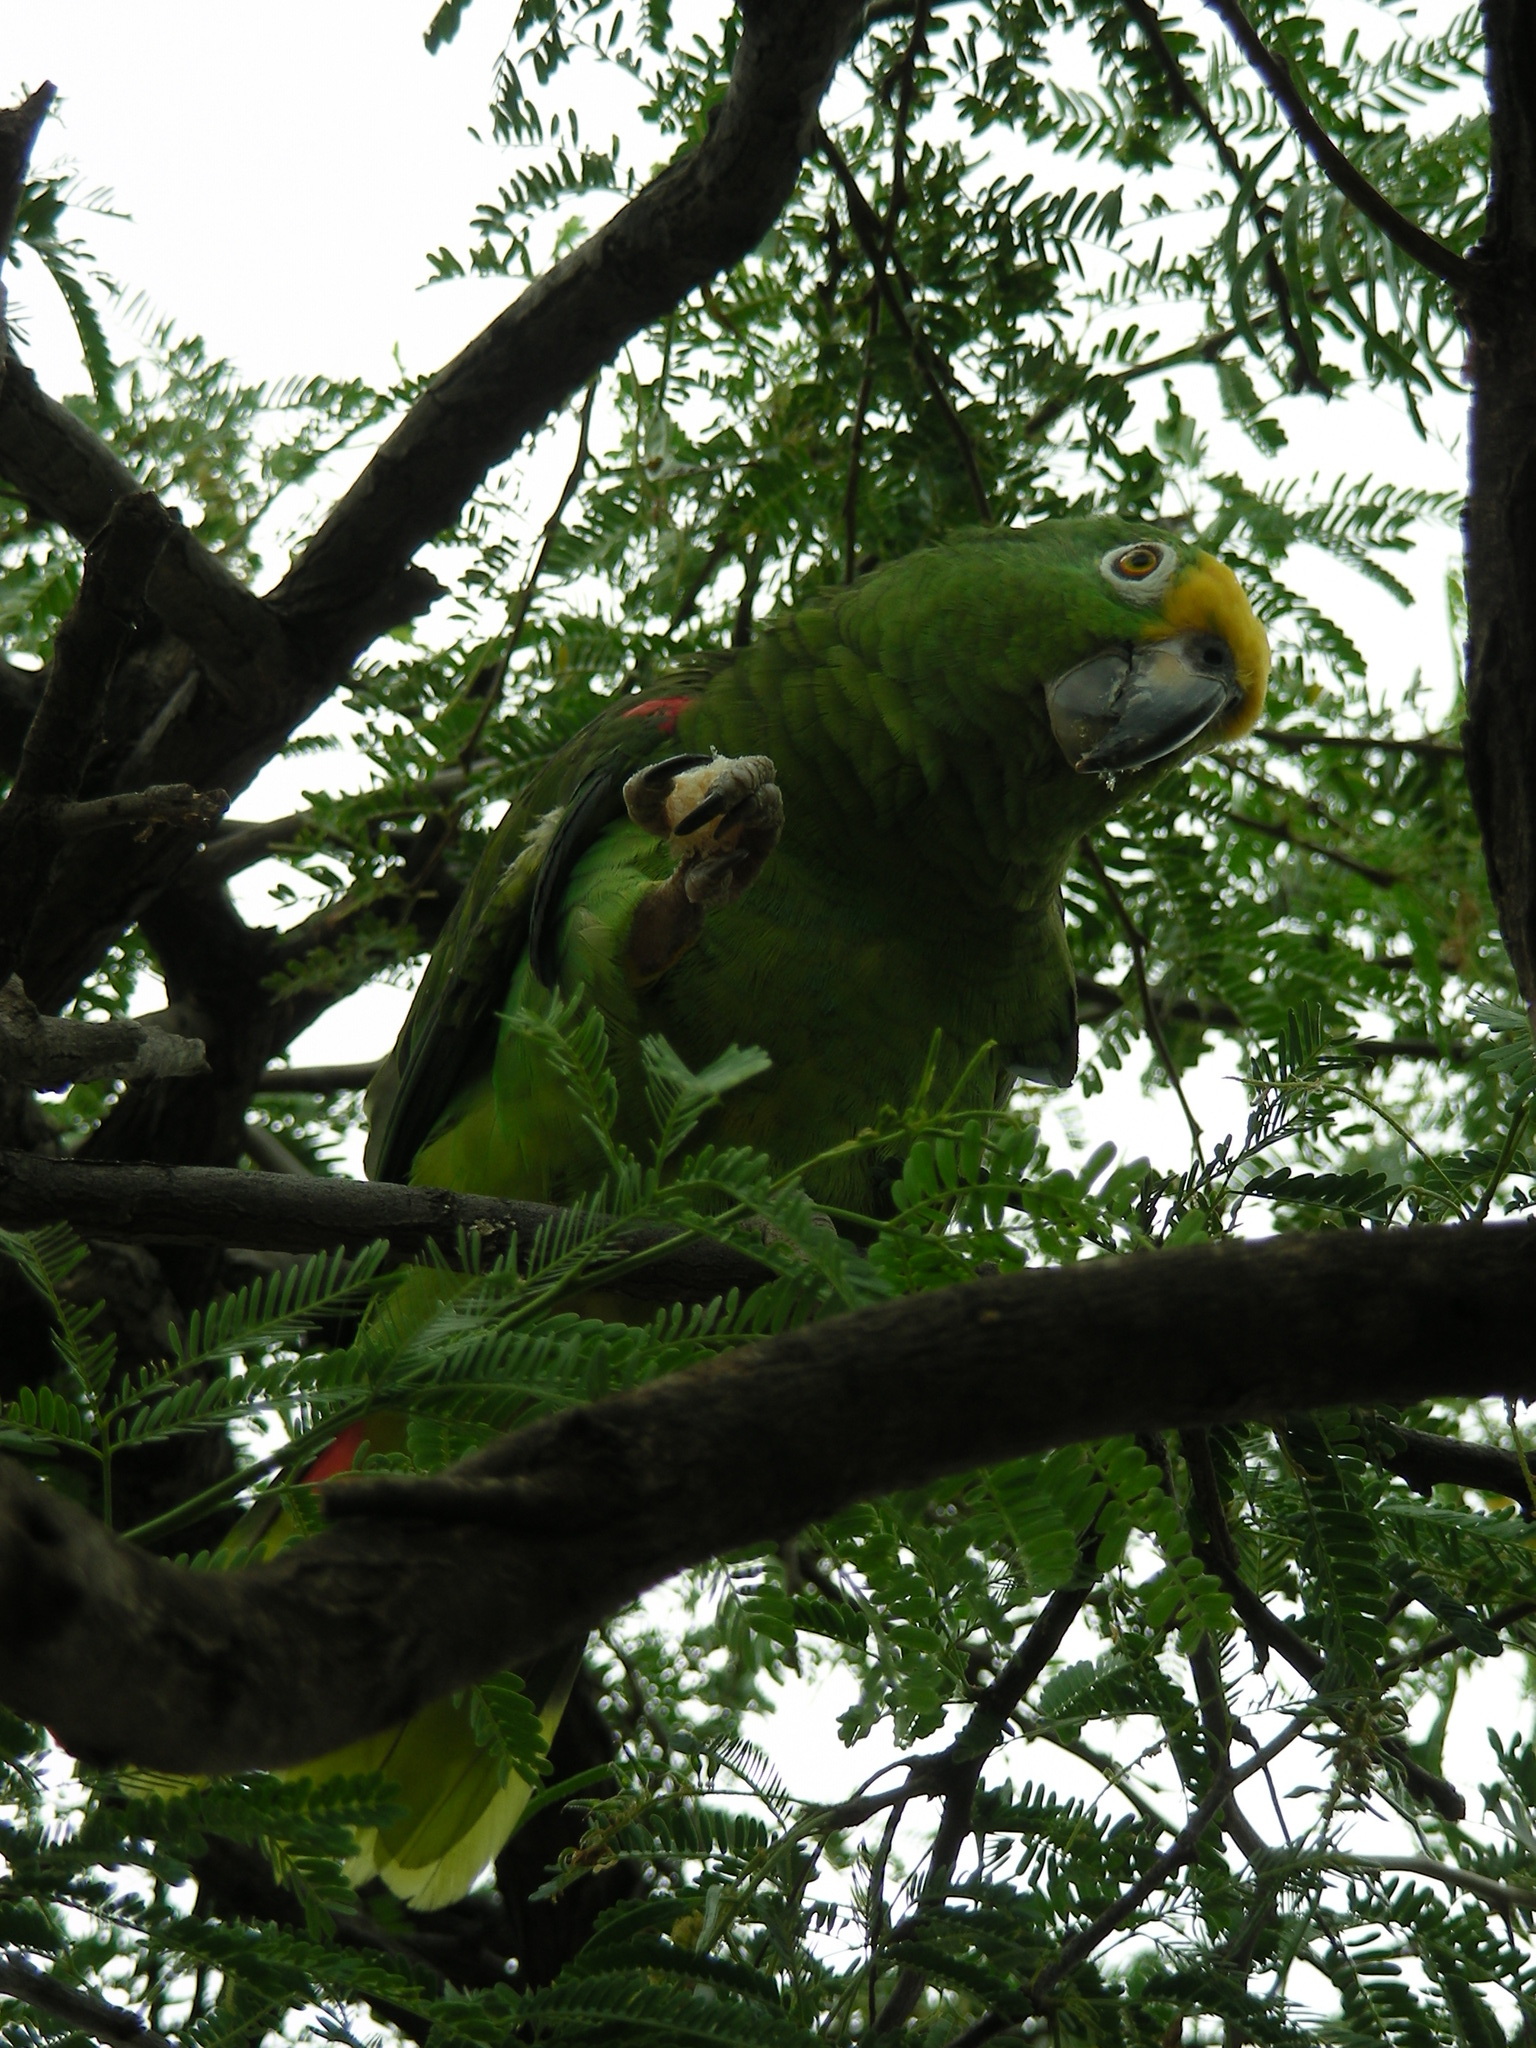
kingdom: Animalia
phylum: Chordata
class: Aves
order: Psittaciformes
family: Psittacidae
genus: Amazona
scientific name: Amazona ochrocephala
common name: Yellow-crowned amazon
